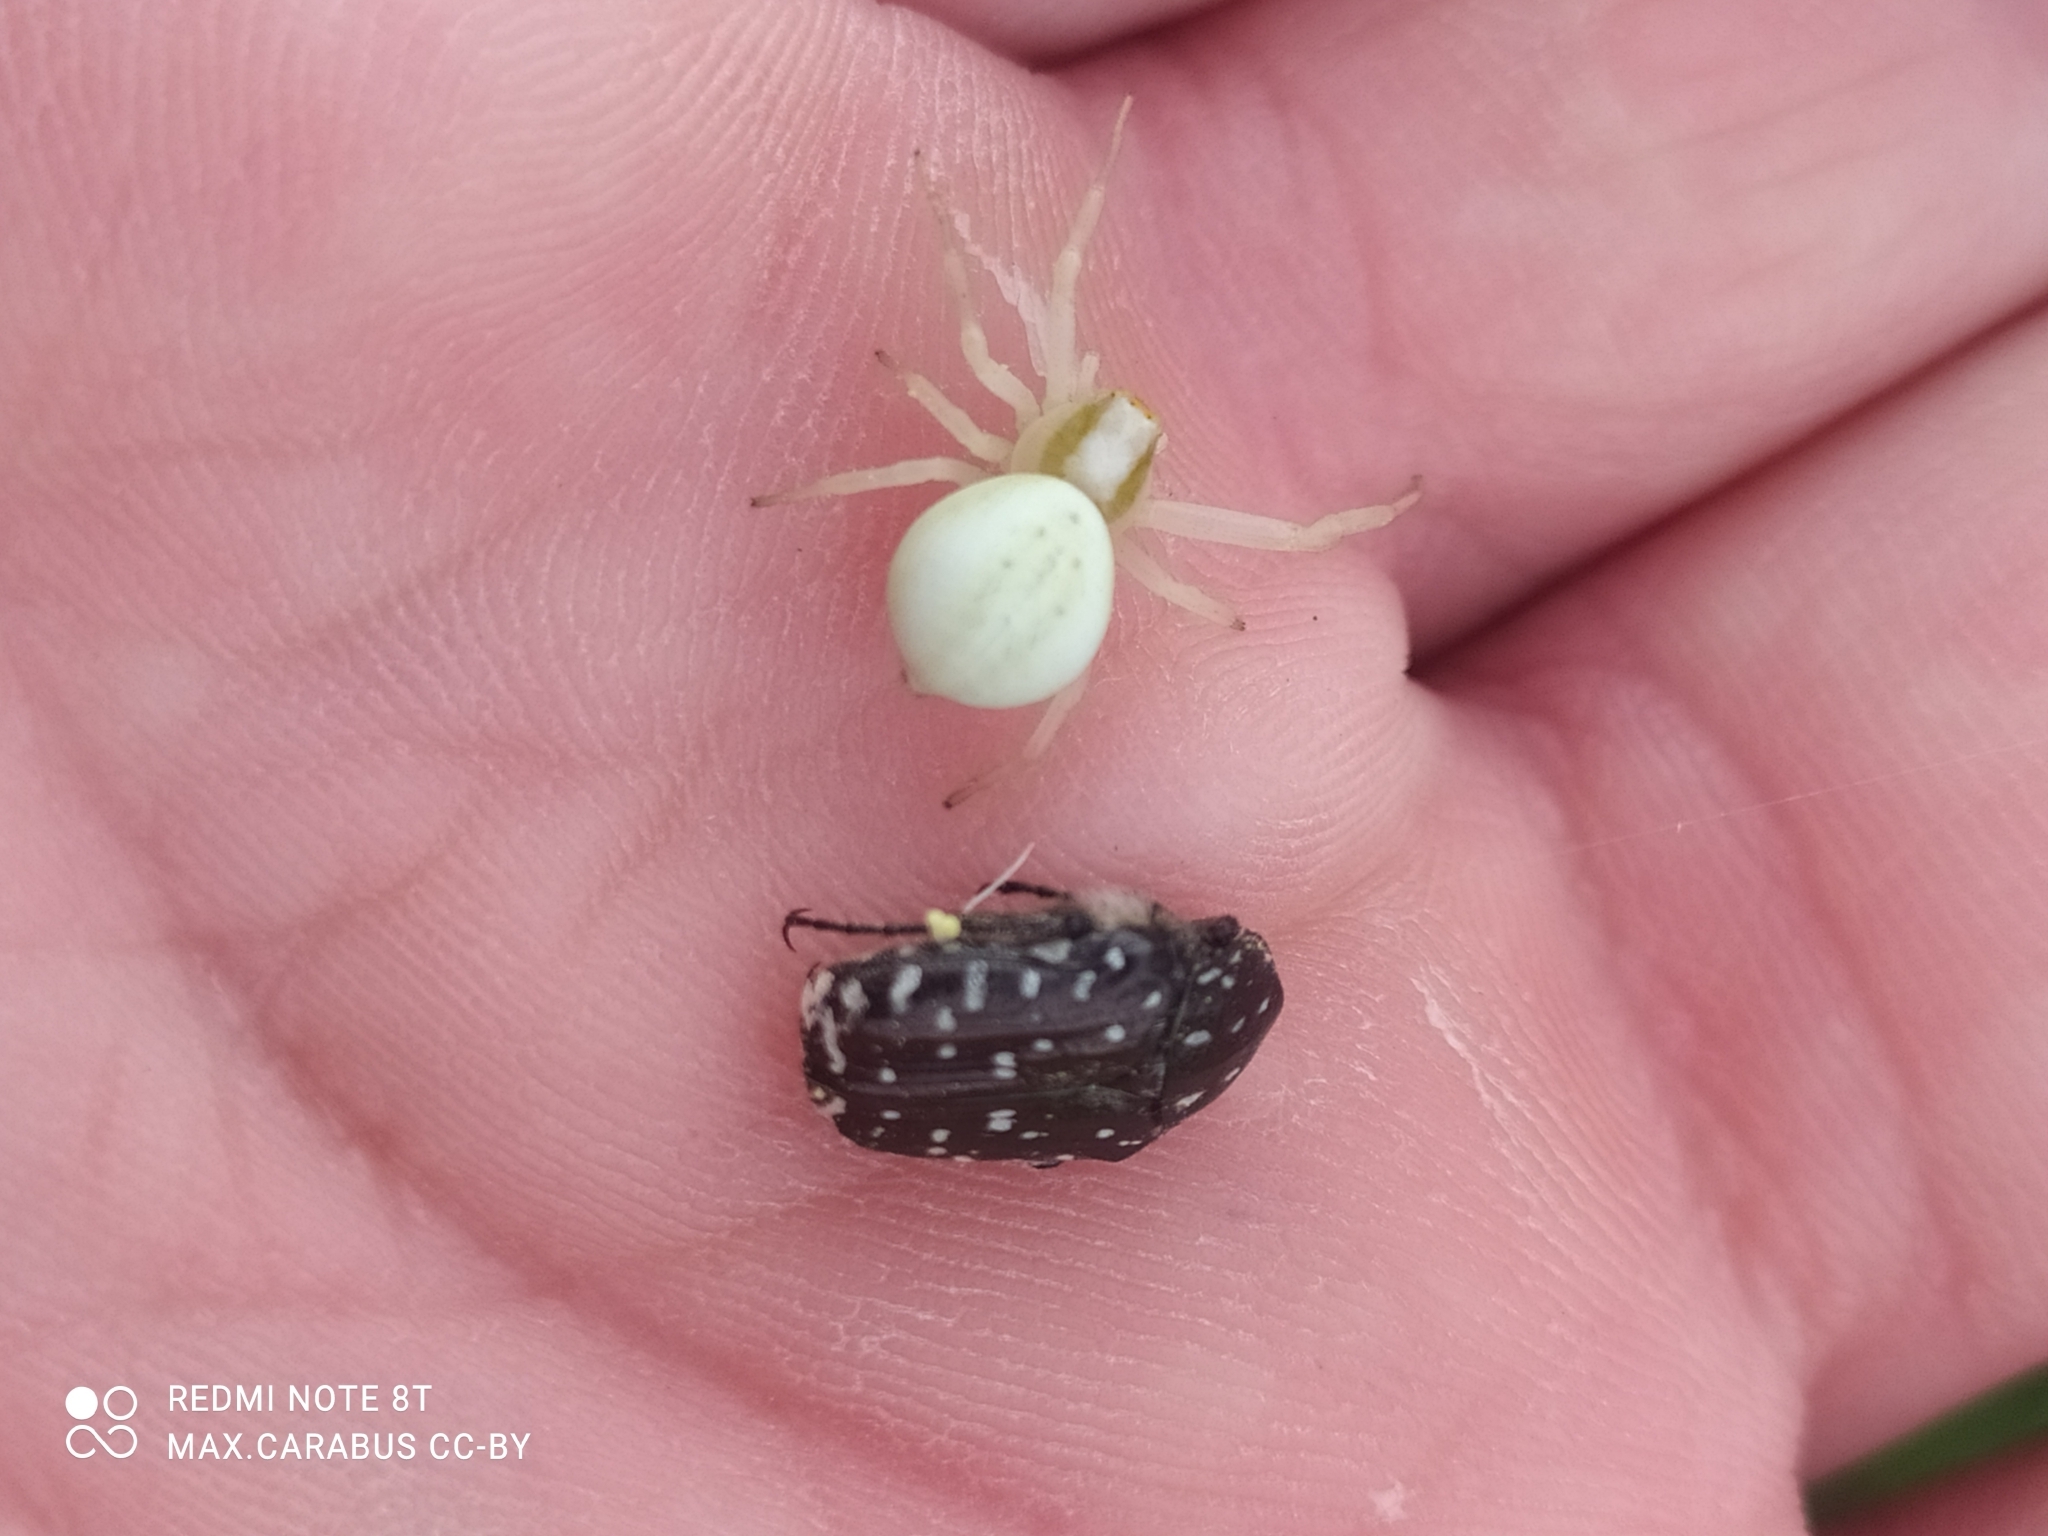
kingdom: Animalia
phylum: Arthropoda
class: Arachnida
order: Araneae
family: Thomisidae
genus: Misumena
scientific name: Misumena vatia
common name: Goldenrod crab spider
